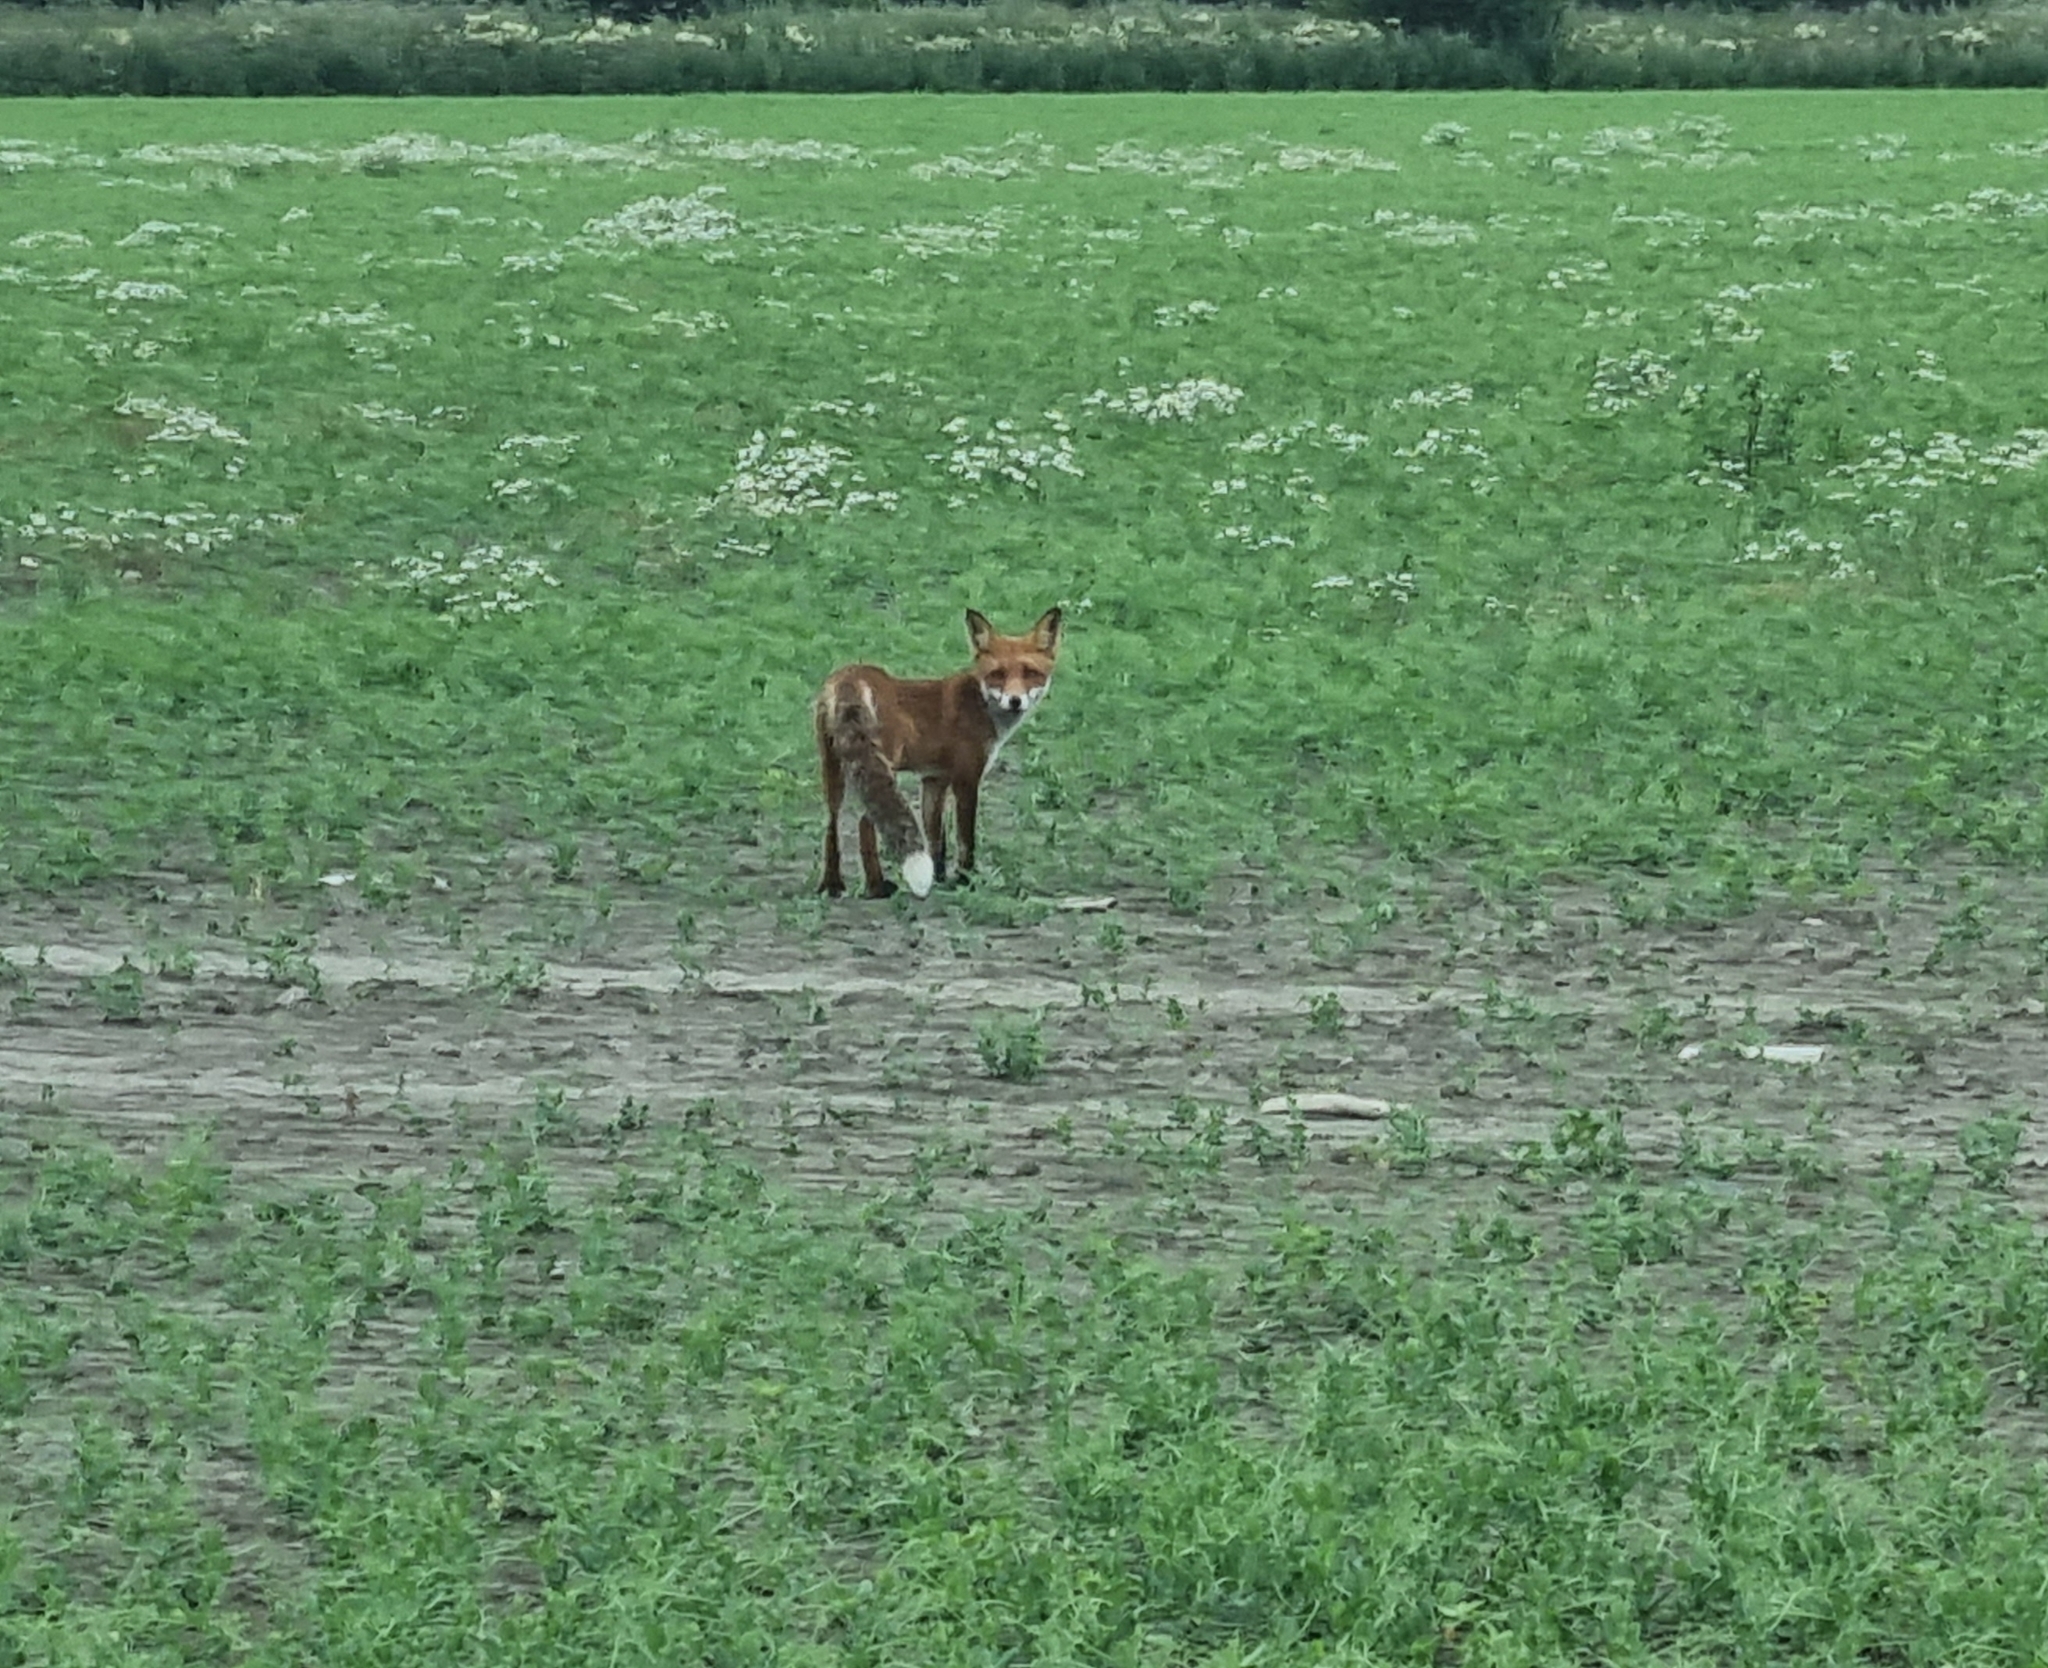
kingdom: Animalia
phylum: Chordata
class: Mammalia
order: Carnivora
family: Canidae
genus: Vulpes
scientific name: Vulpes vulpes
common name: Red fox
